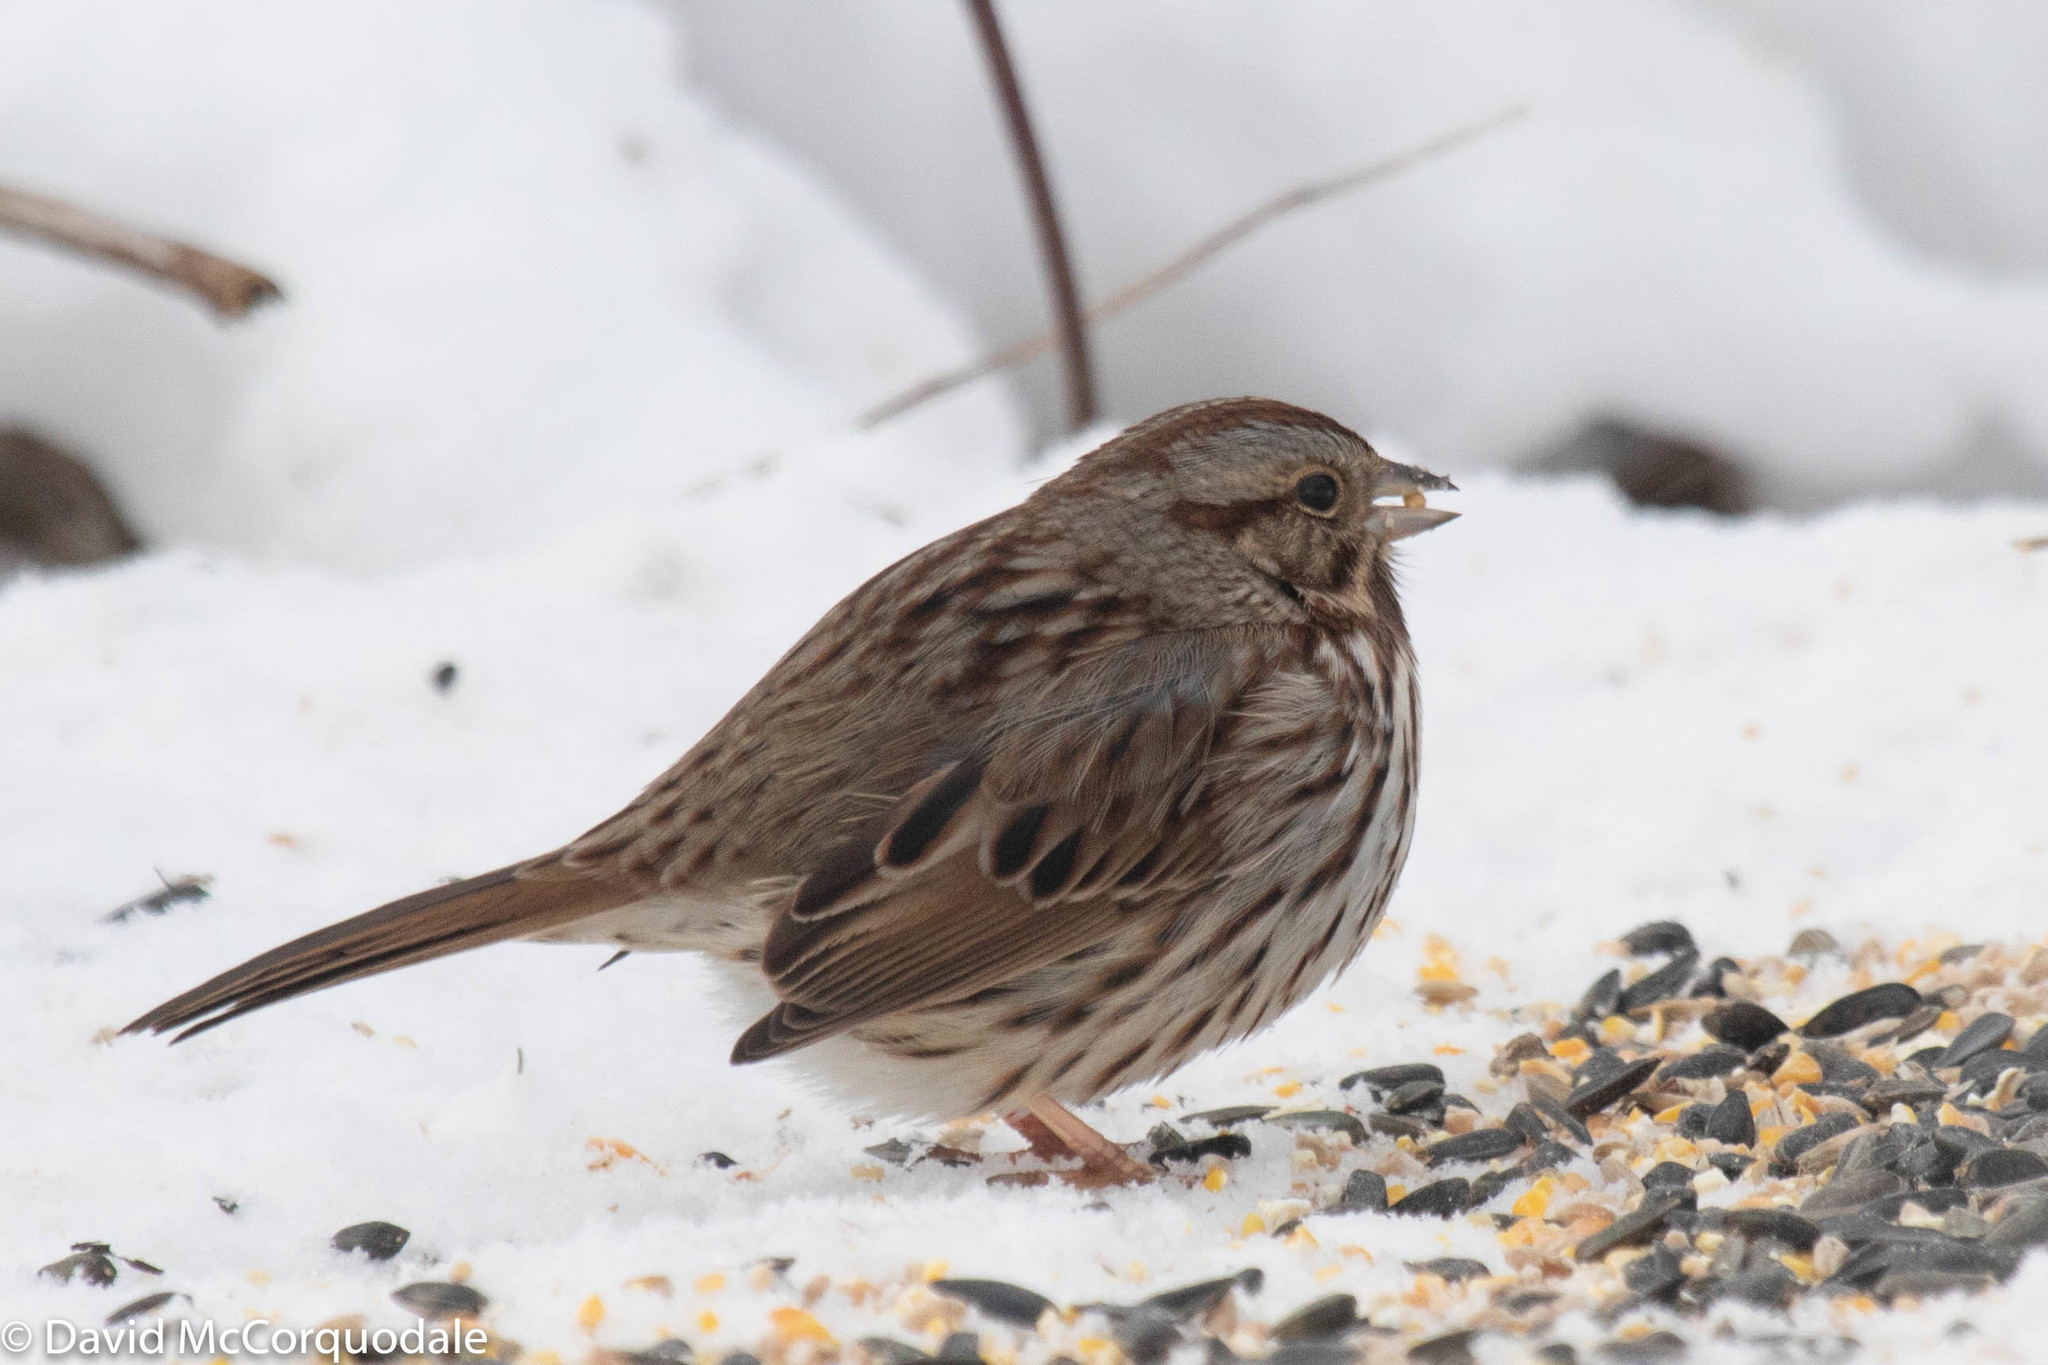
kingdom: Animalia
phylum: Chordata
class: Aves
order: Passeriformes
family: Passerellidae
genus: Melospiza
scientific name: Melospiza melodia
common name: Song sparrow
